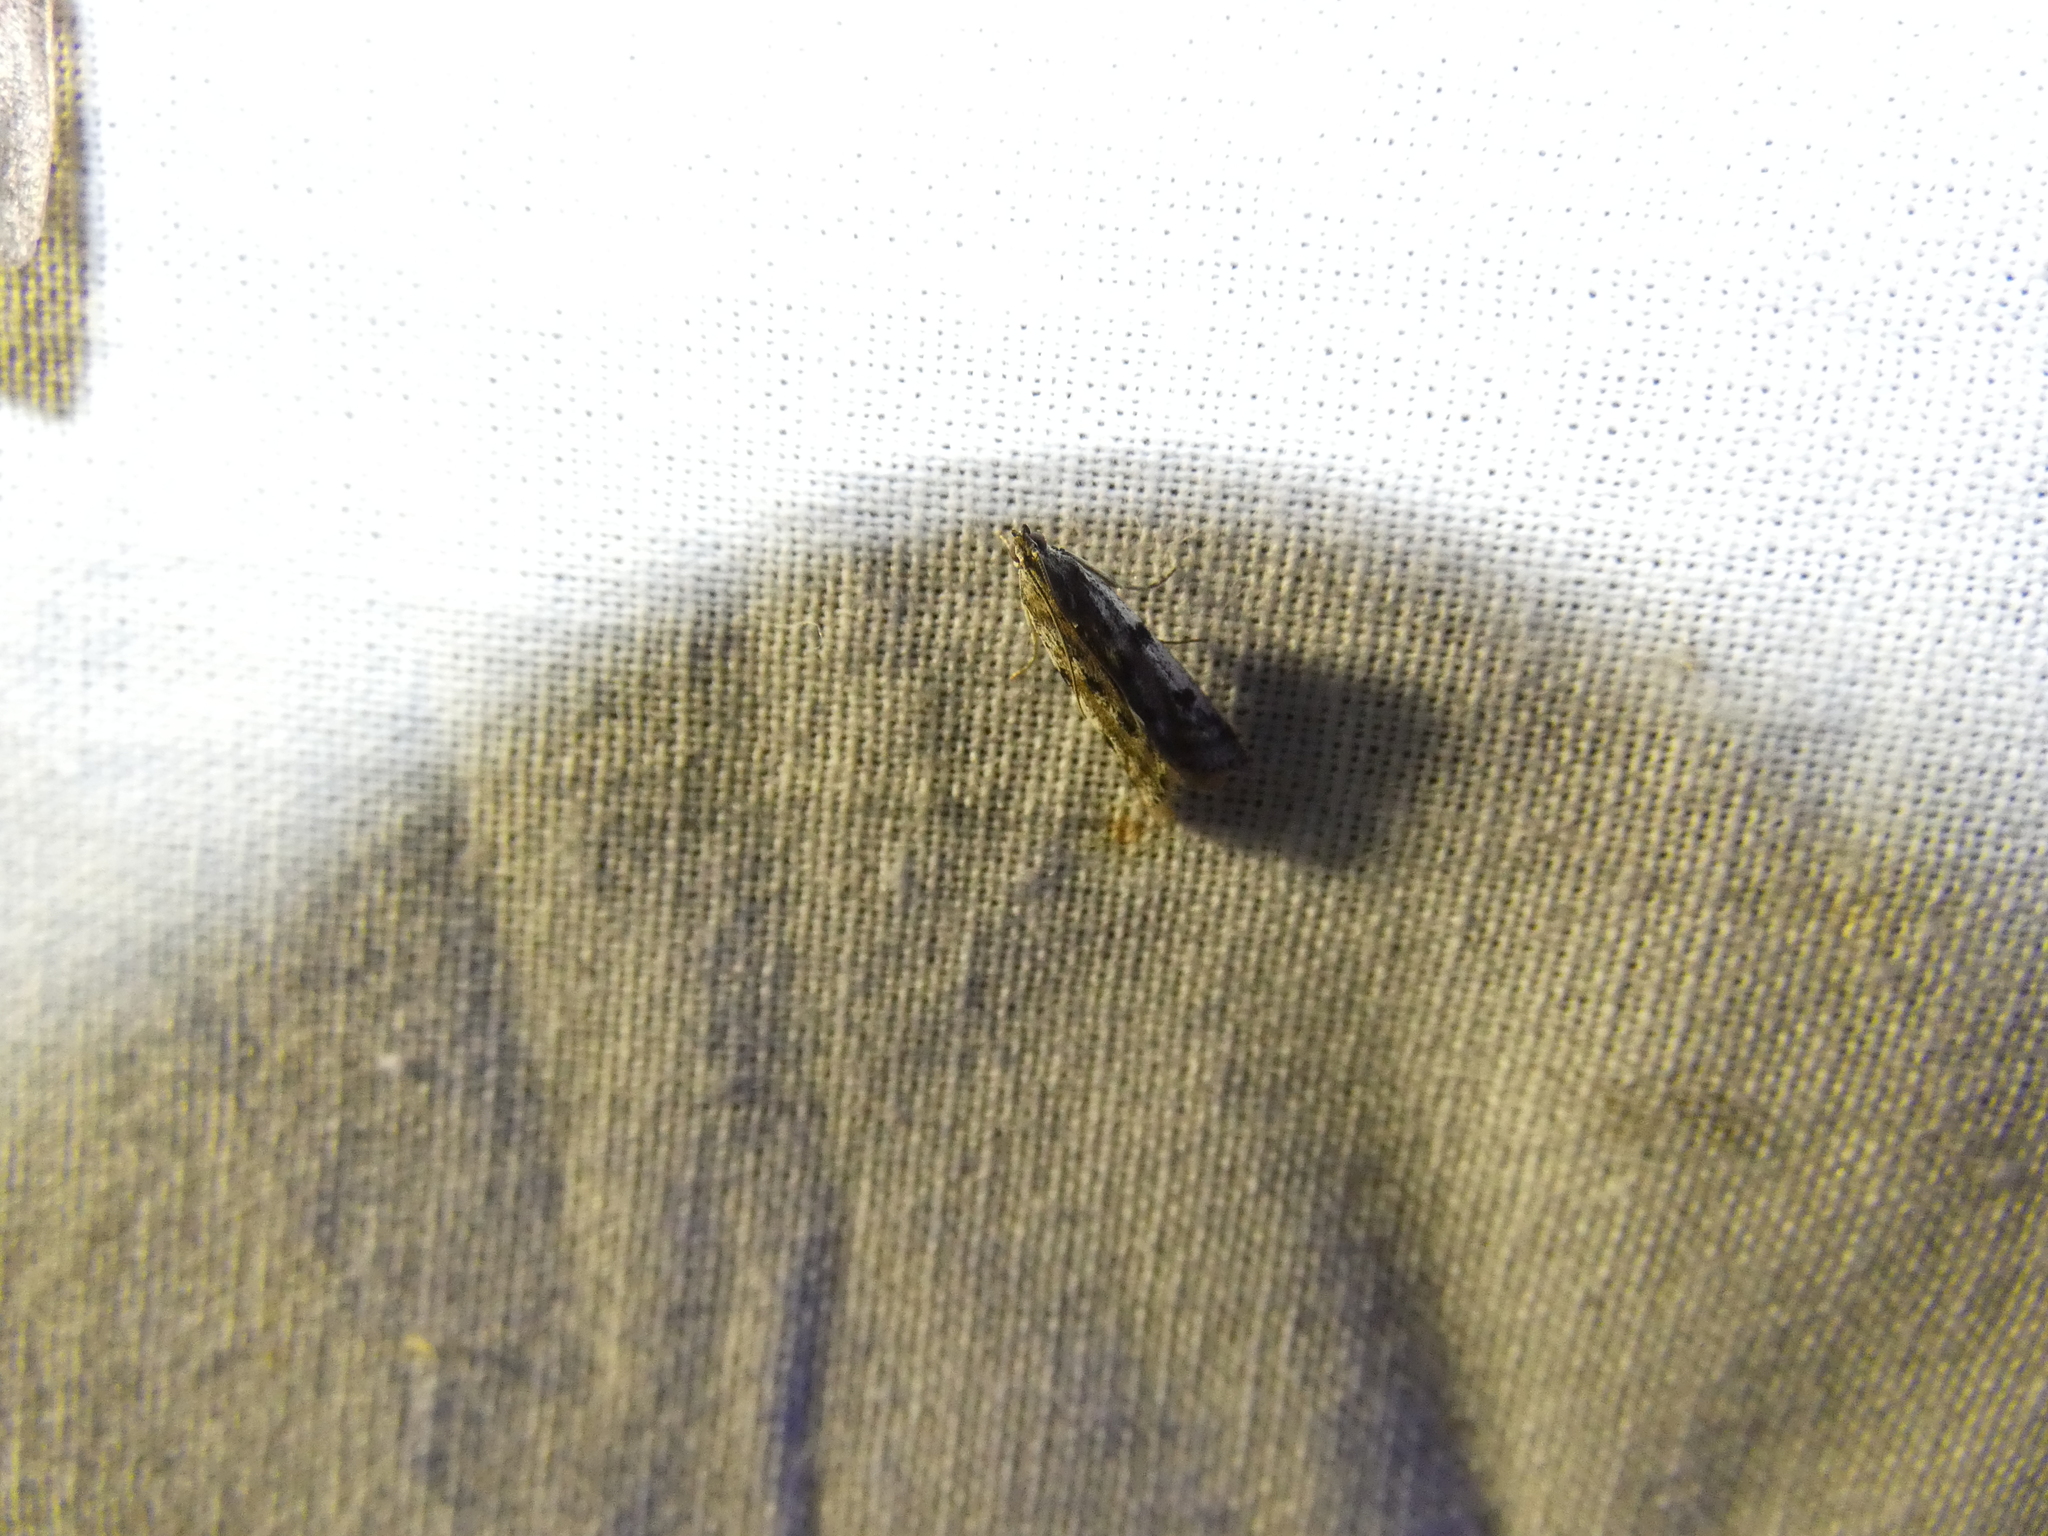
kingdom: Animalia
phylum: Arthropoda
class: Insecta
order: Lepidoptera
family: Pyralidae
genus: Phycitodes
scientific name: Phycitodes binaevella
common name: Ermine knot-horn
